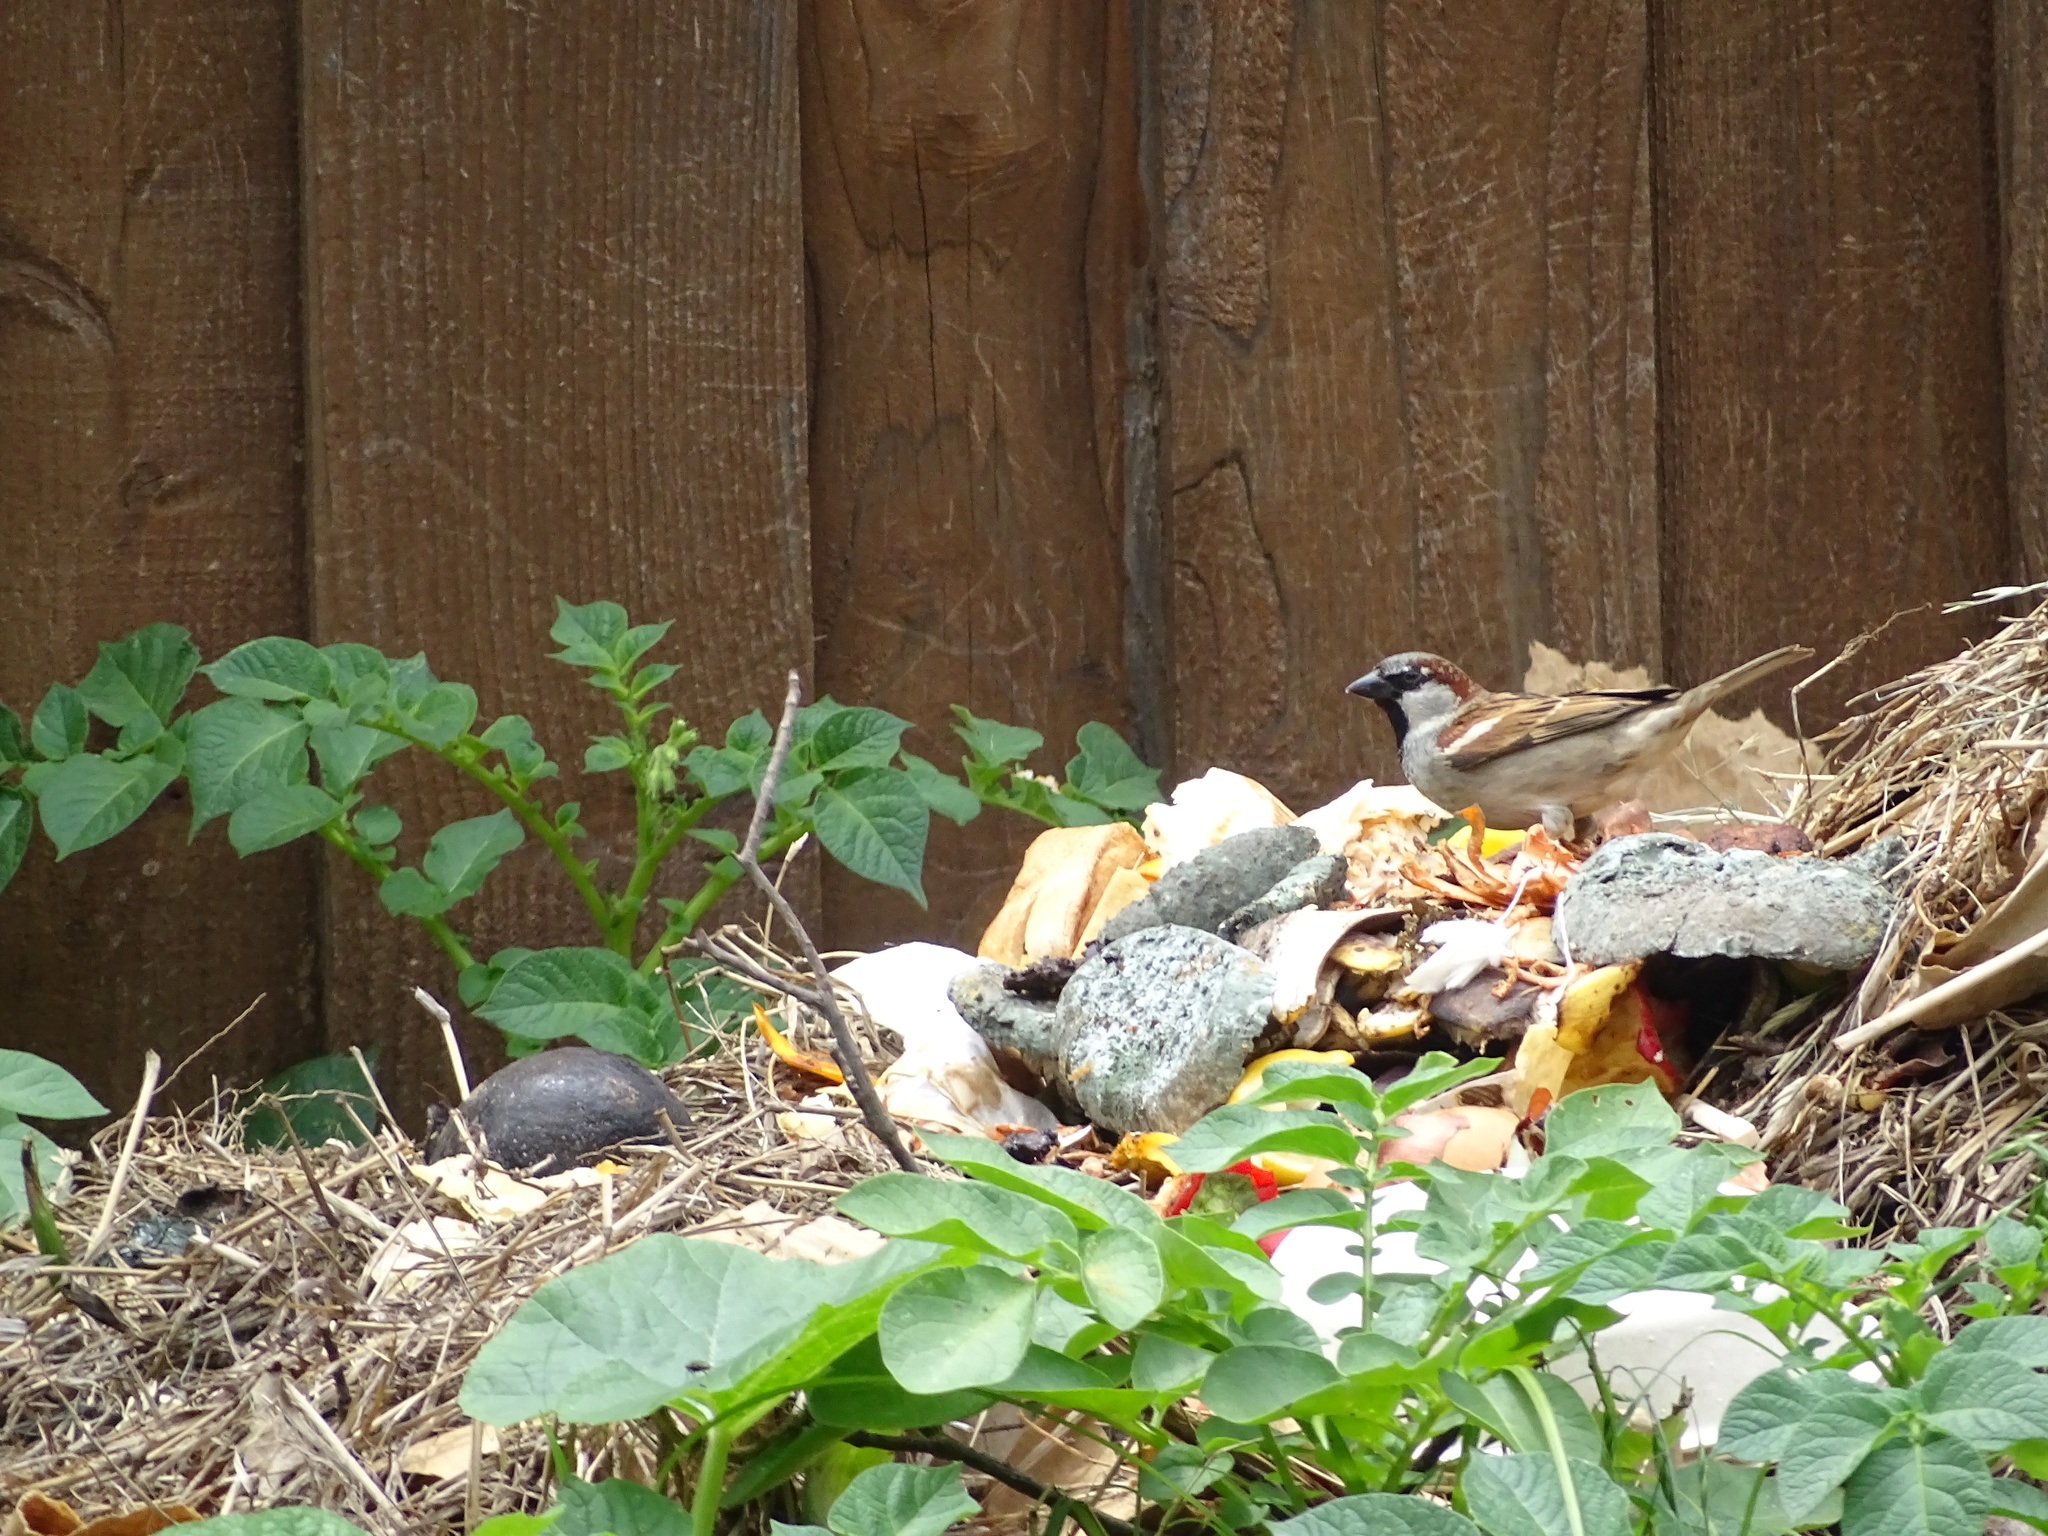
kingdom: Animalia
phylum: Chordata
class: Aves
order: Passeriformes
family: Passeridae
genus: Passer
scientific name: Passer domesticus
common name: House sparrow
